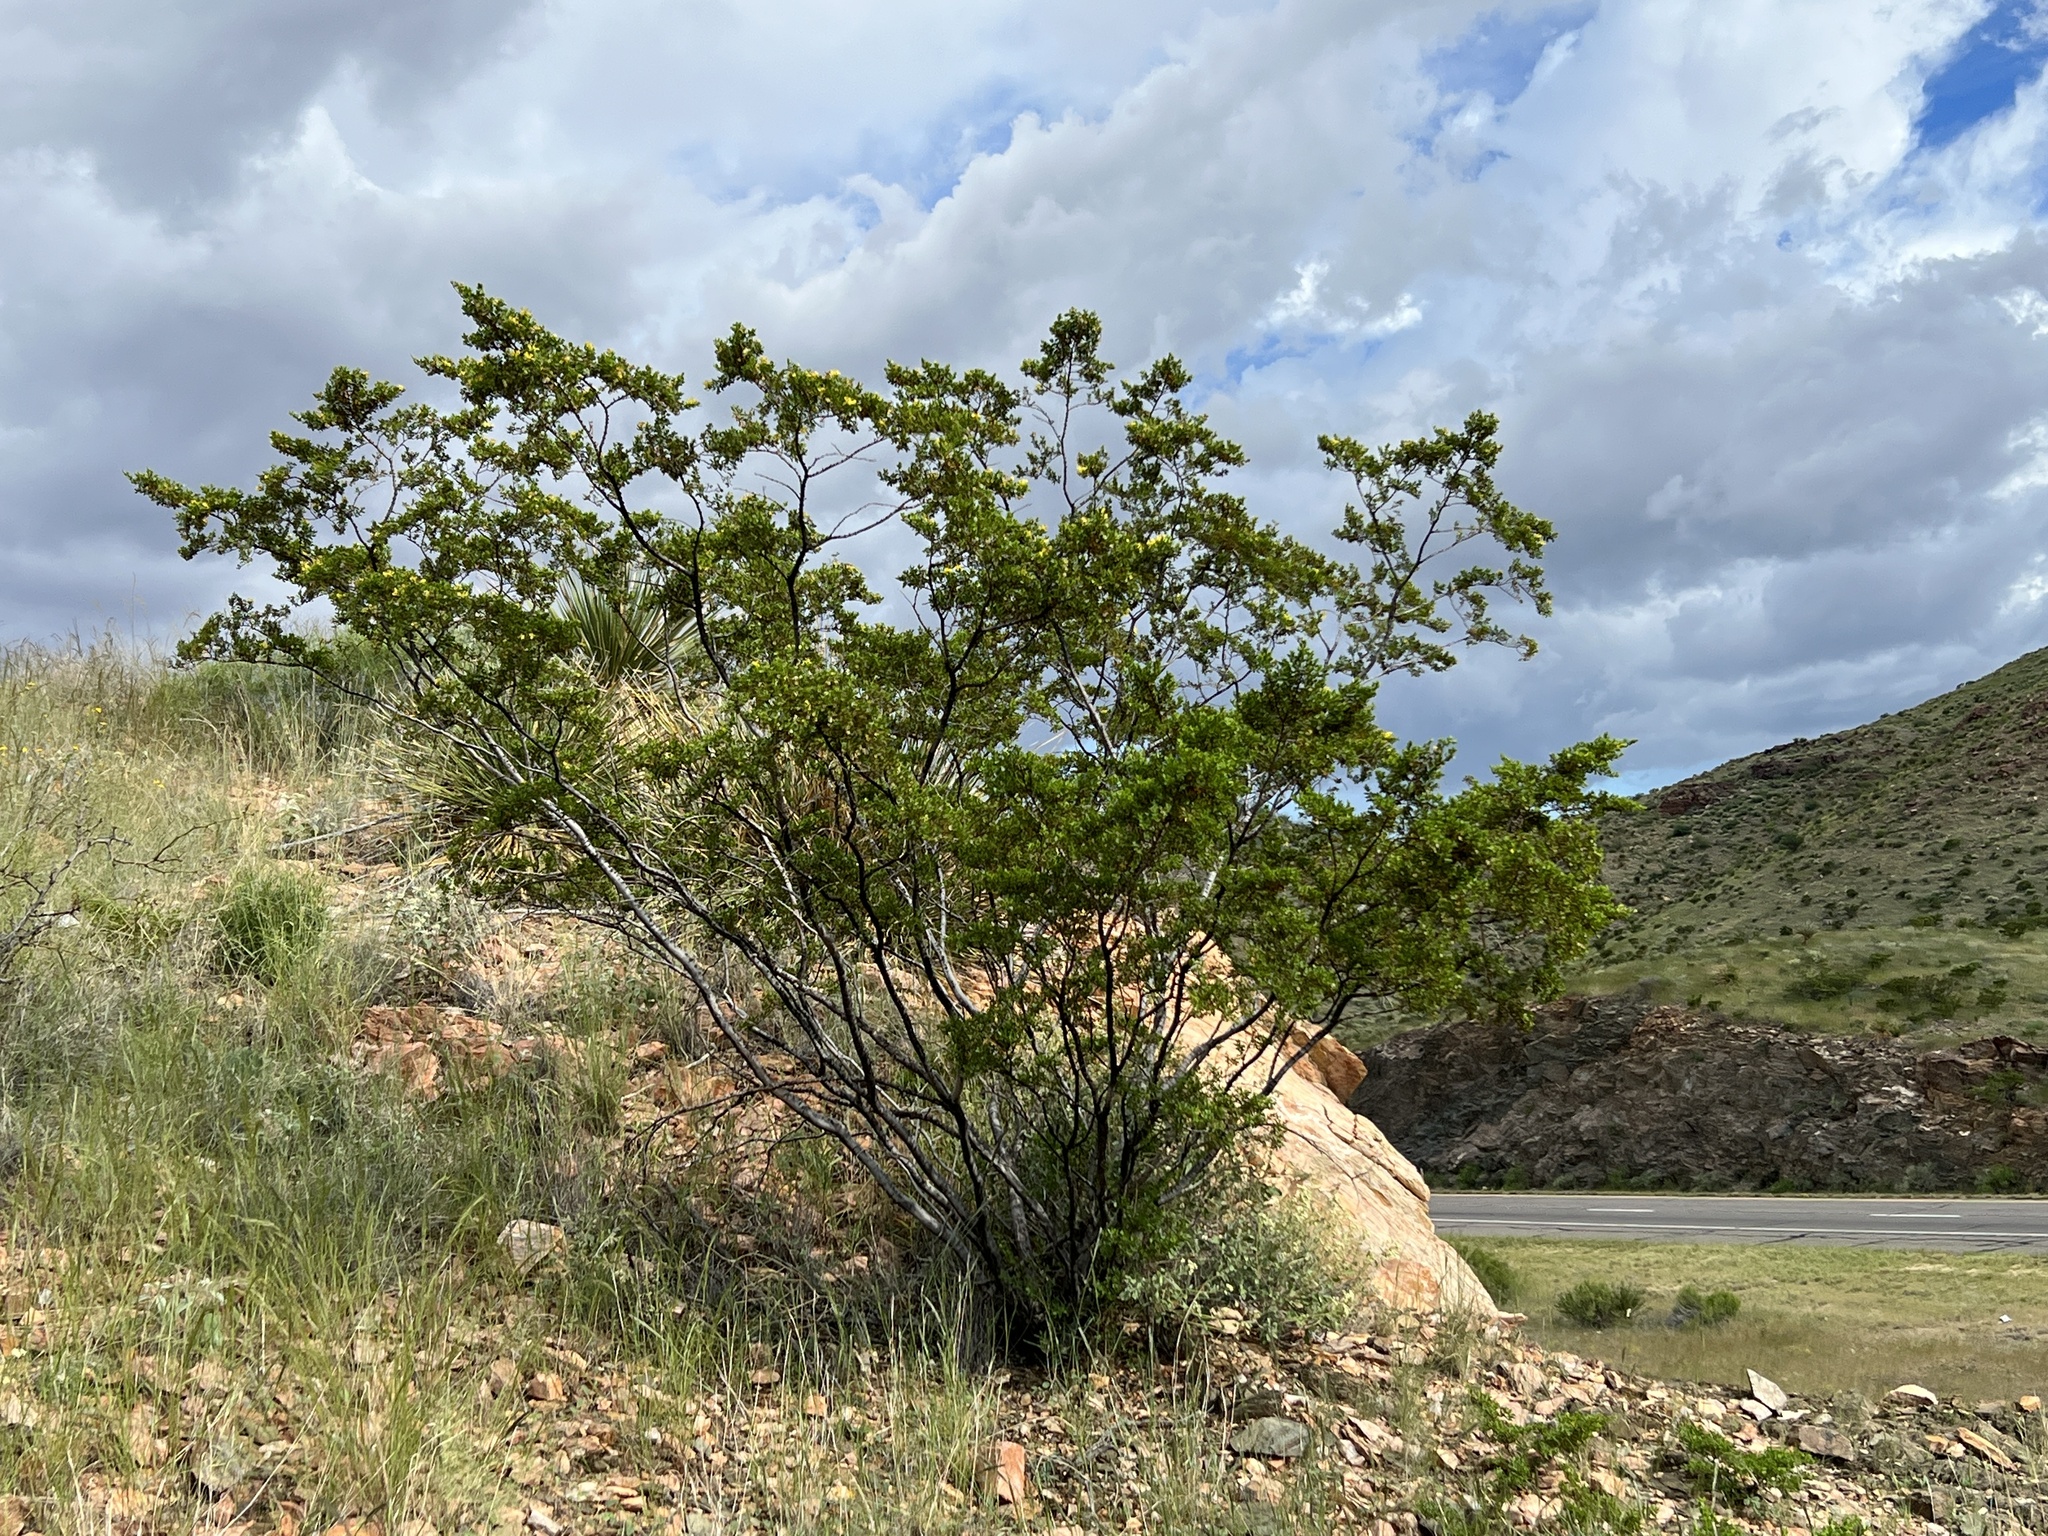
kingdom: Plantae
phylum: Tracheophyta
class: Magnoliopsida
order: Zygophyllales
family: Zygophyllaceae
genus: Larrea
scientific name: Larrea tridentata
